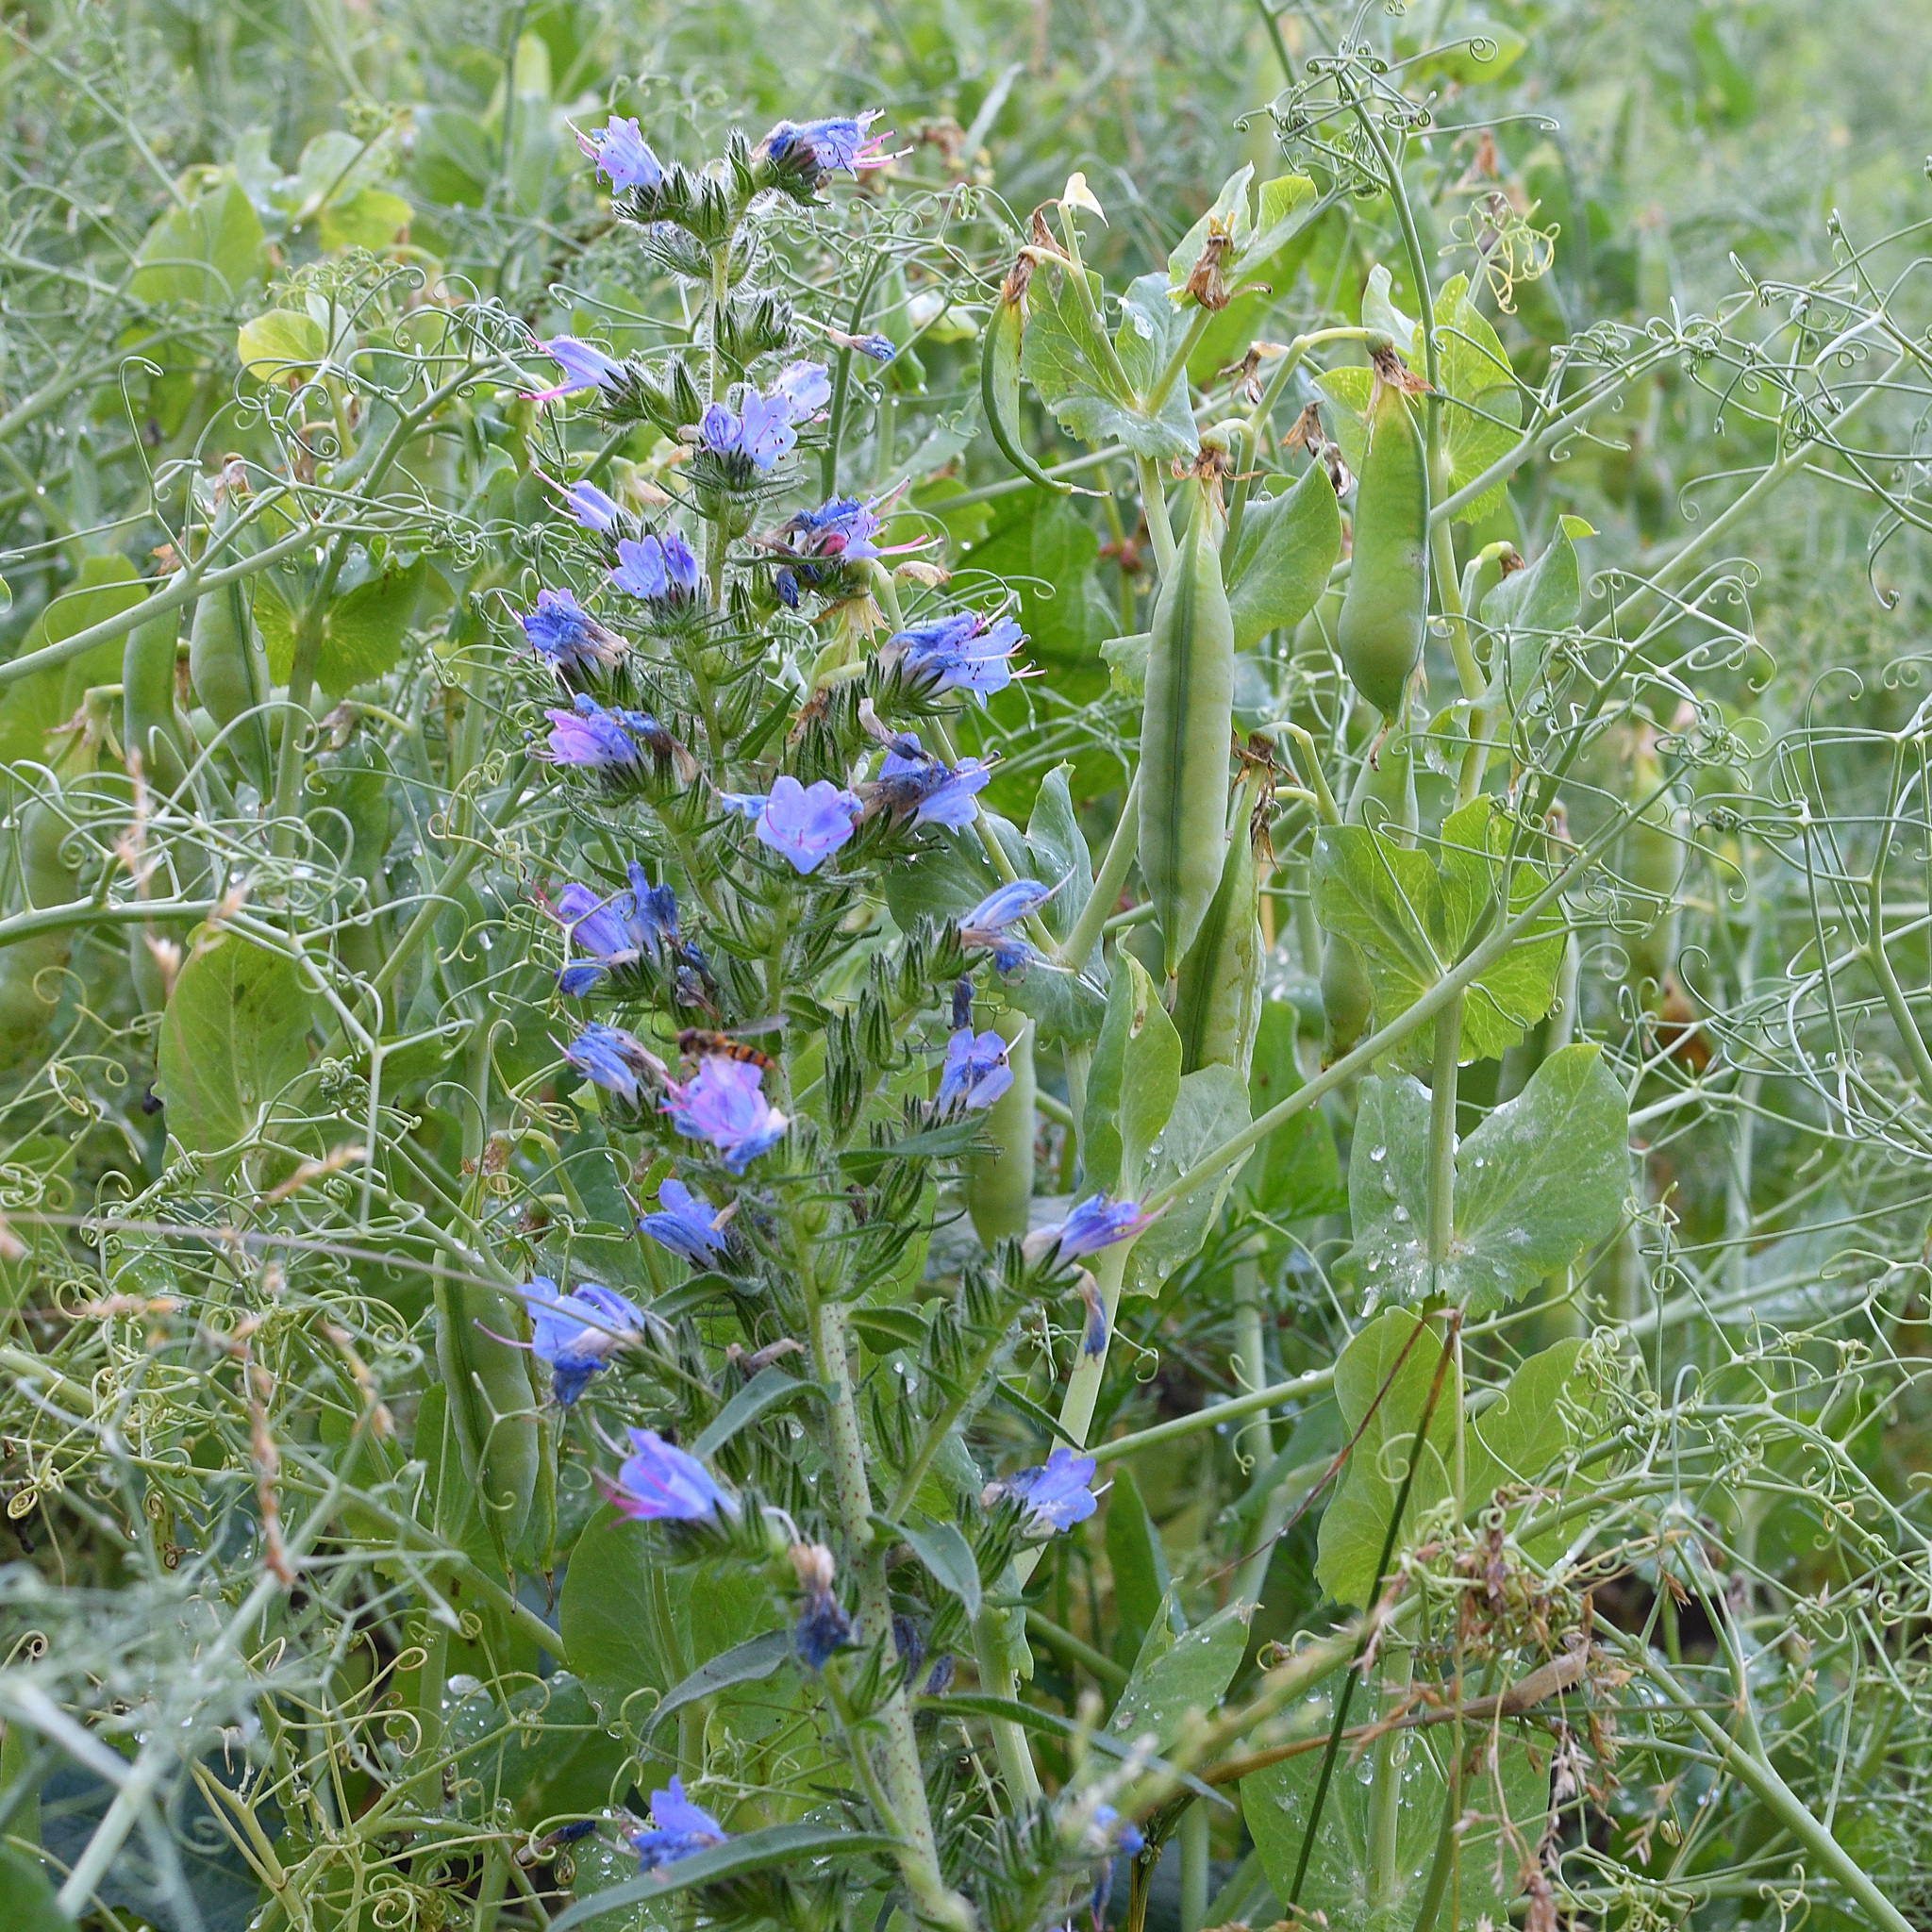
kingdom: Plantae
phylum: Tracheophyta
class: Magnoliopsida
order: Boraginales
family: Boraginaceae
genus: Echium
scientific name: Echium vulgare
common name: Common viper's bugloss
